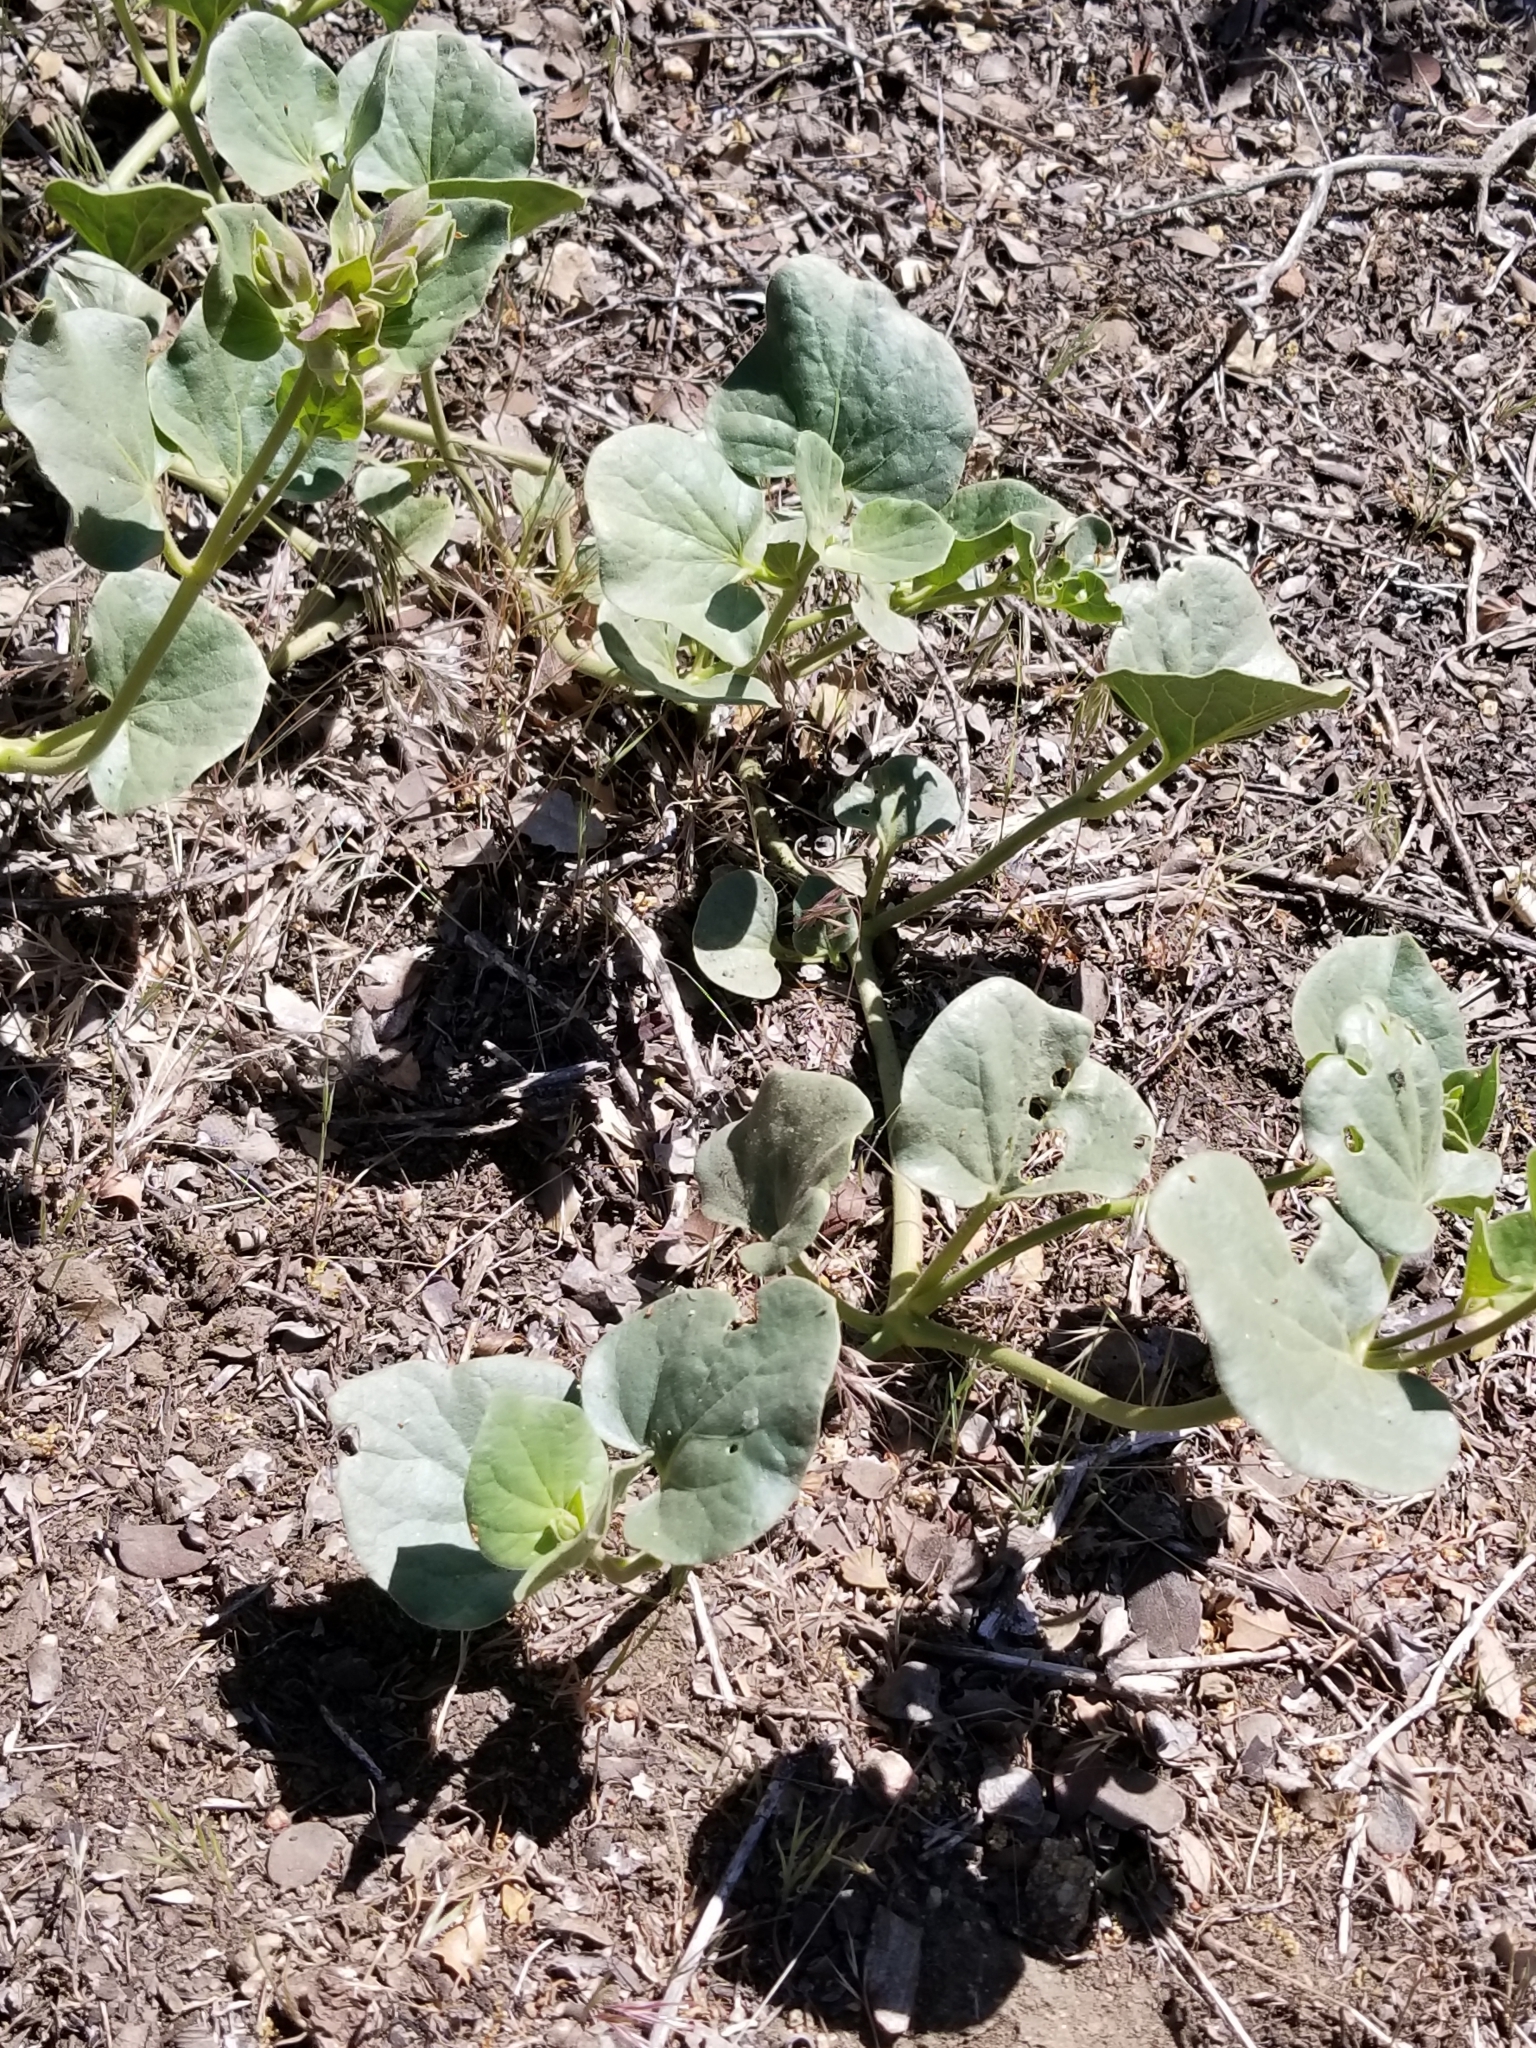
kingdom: Plantae
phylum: Tracheophyta
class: Magnoliopsida
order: Caryophyllales
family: Nyctaginaceae
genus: Mirabilis
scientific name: Mirabilis multiflora
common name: Froebel's four-o'clock
